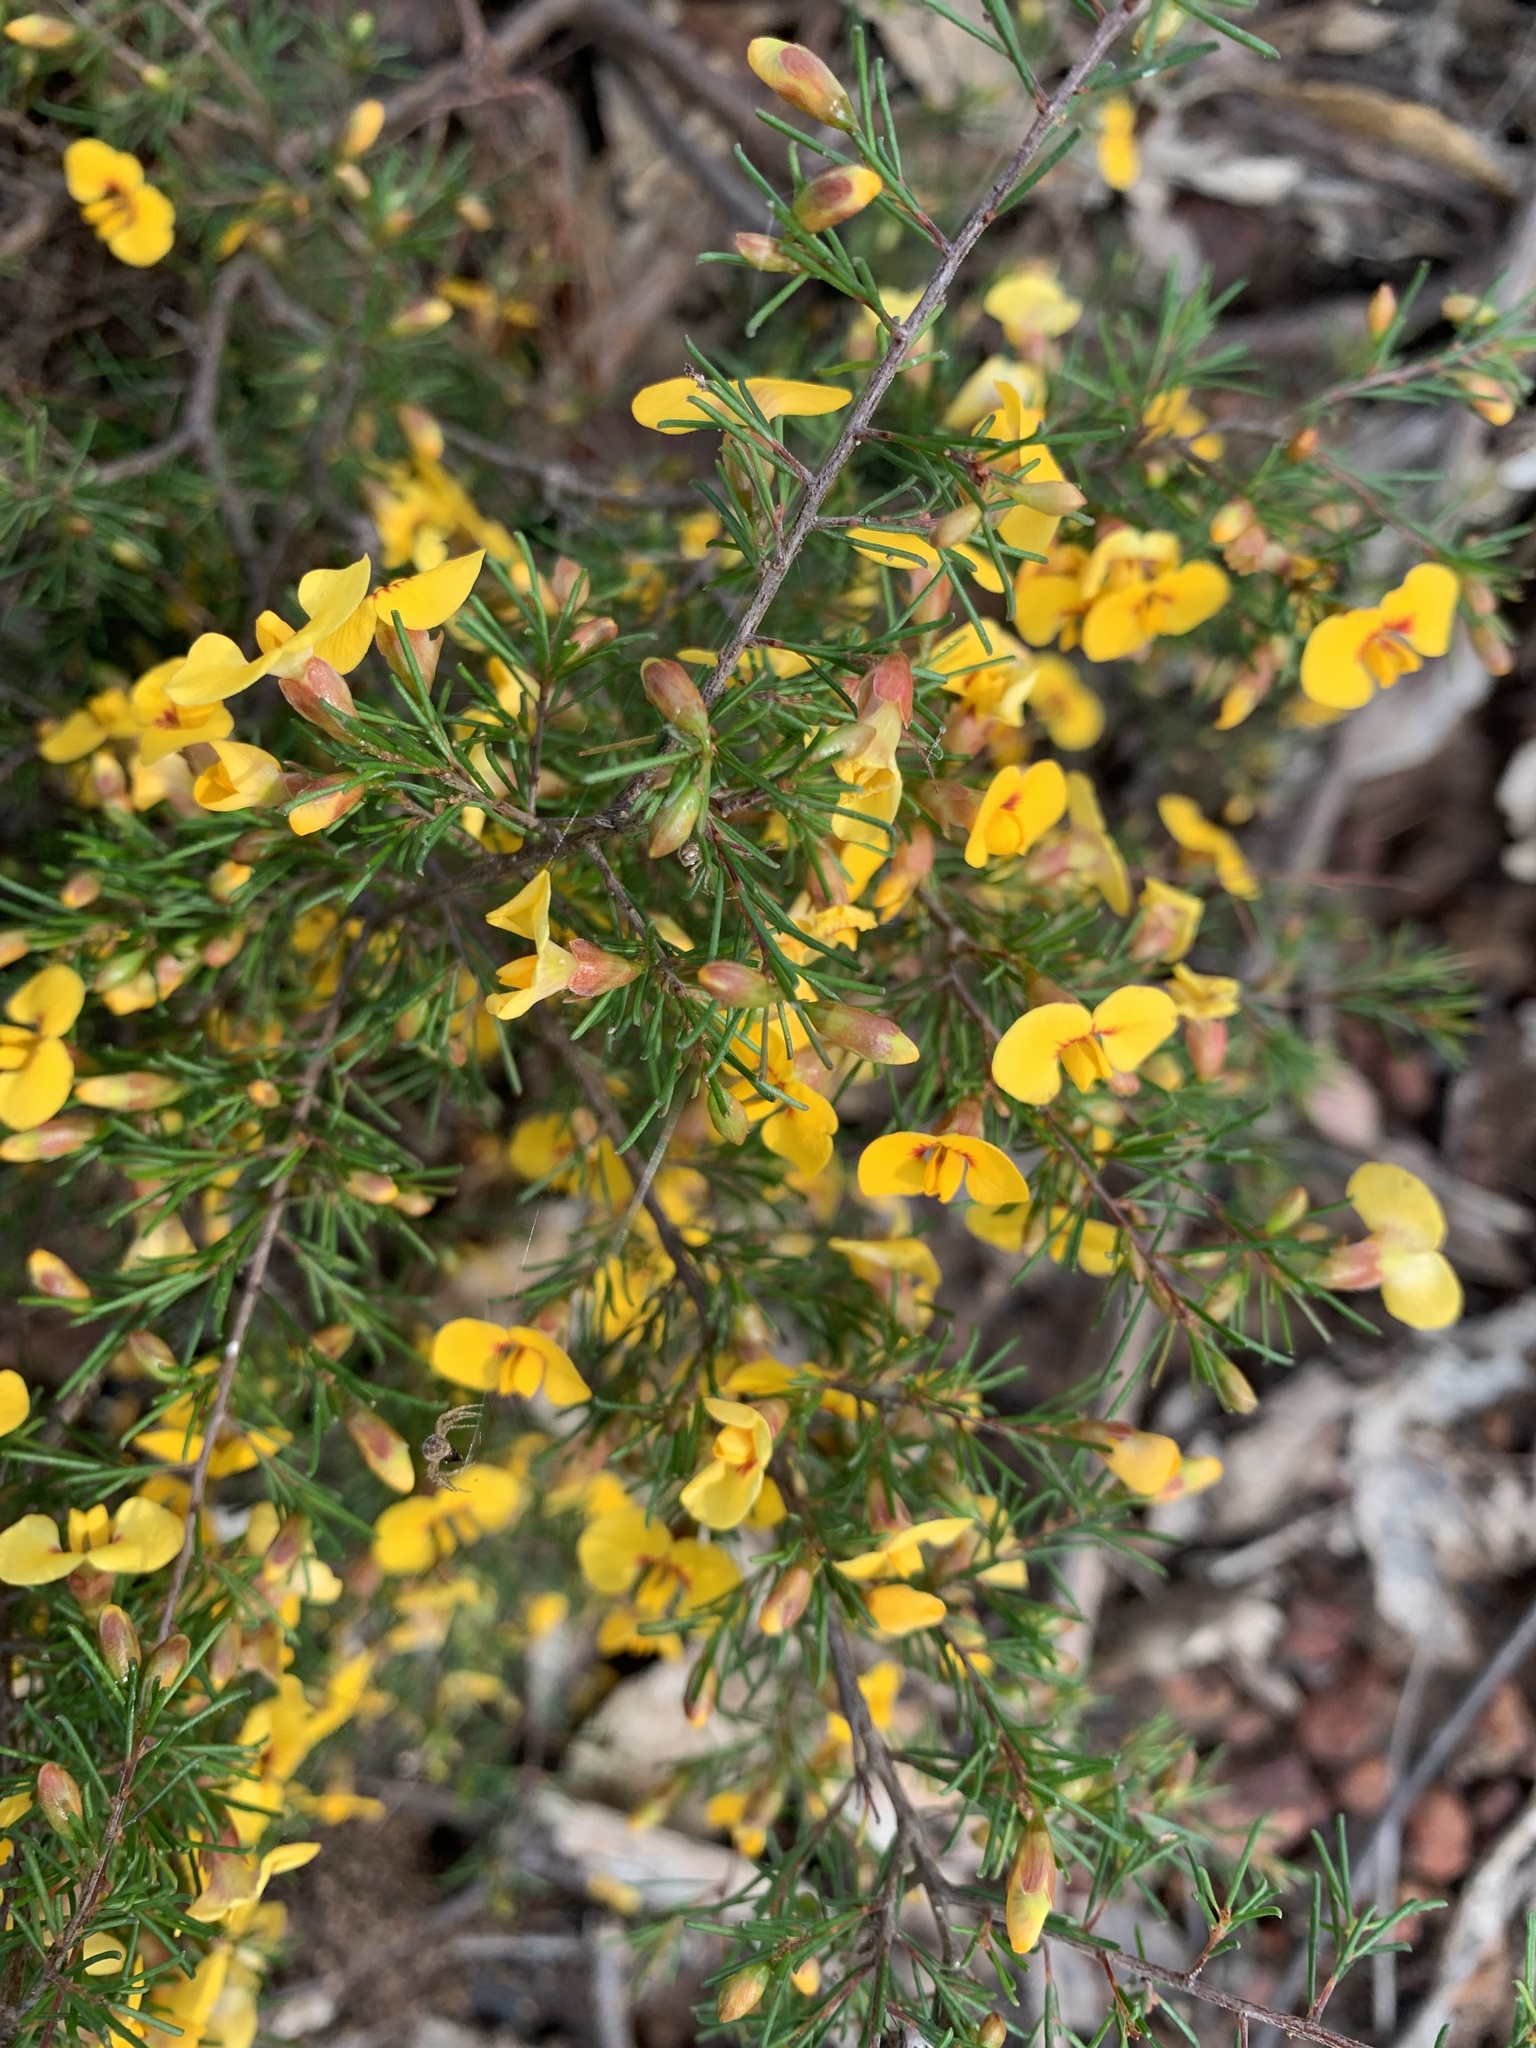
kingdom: Plantae
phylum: Tracheophyta
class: Magnoliopsida
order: Fabales
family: Fabaceae
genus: Dillwynia
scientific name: Dillwynia tenuifolia
